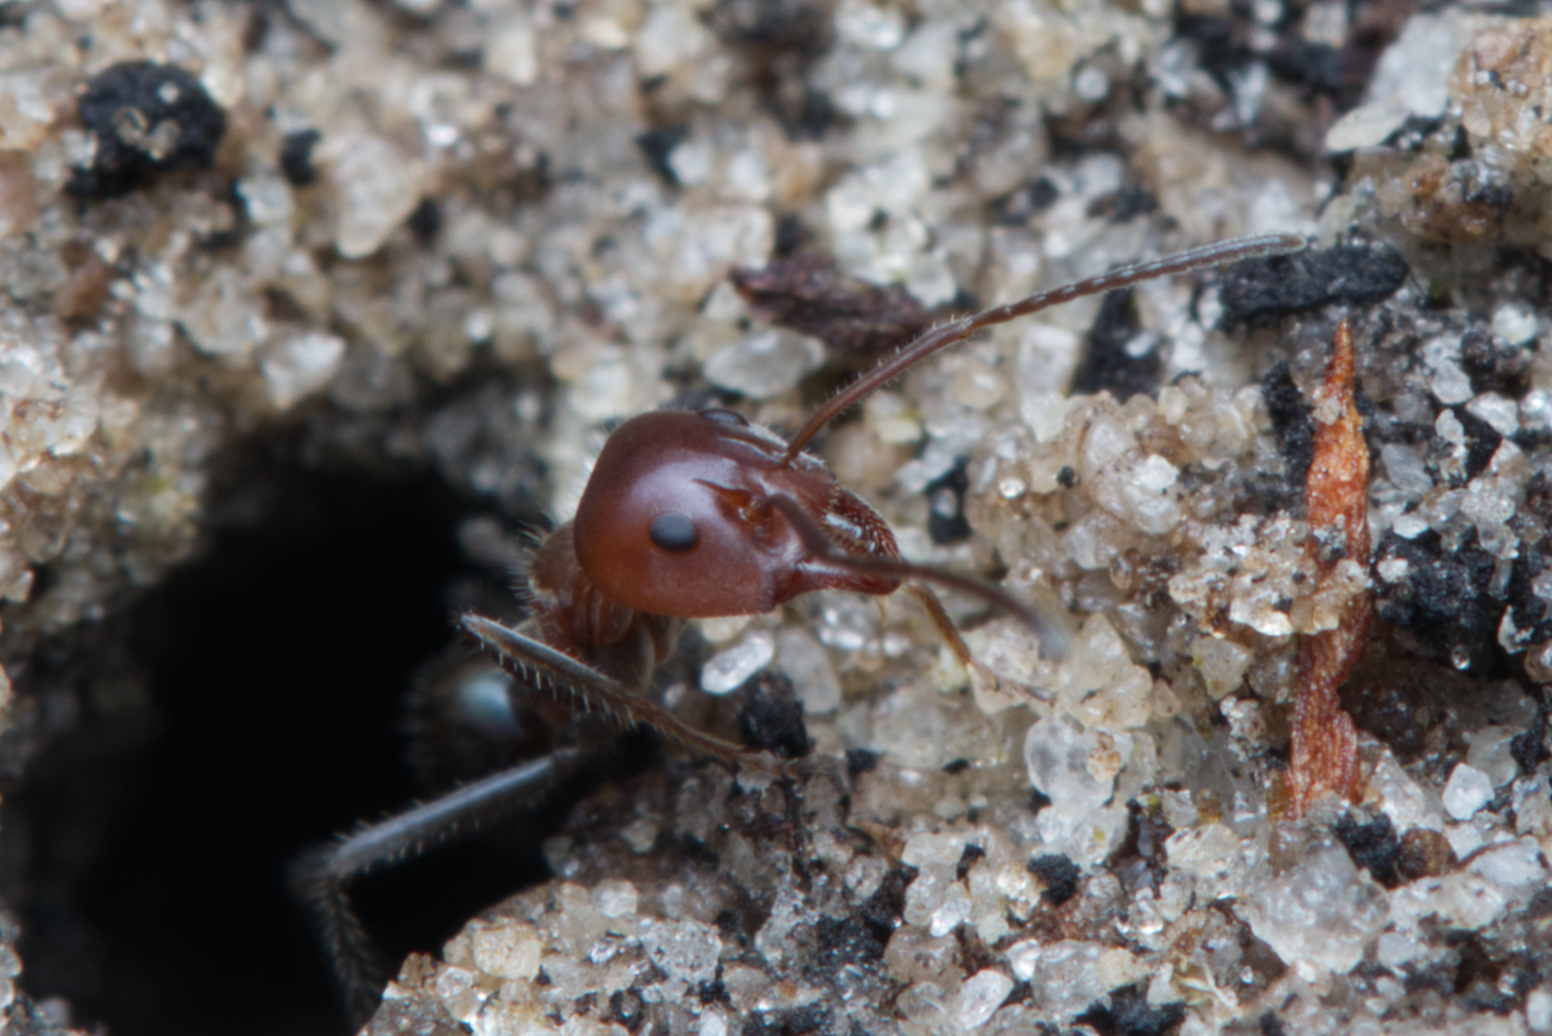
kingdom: Animalia
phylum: Arthropoda
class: Insecta
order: Hymenoptera
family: Formicidae
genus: Iridomyrmex
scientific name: Iridomyrmex discors
